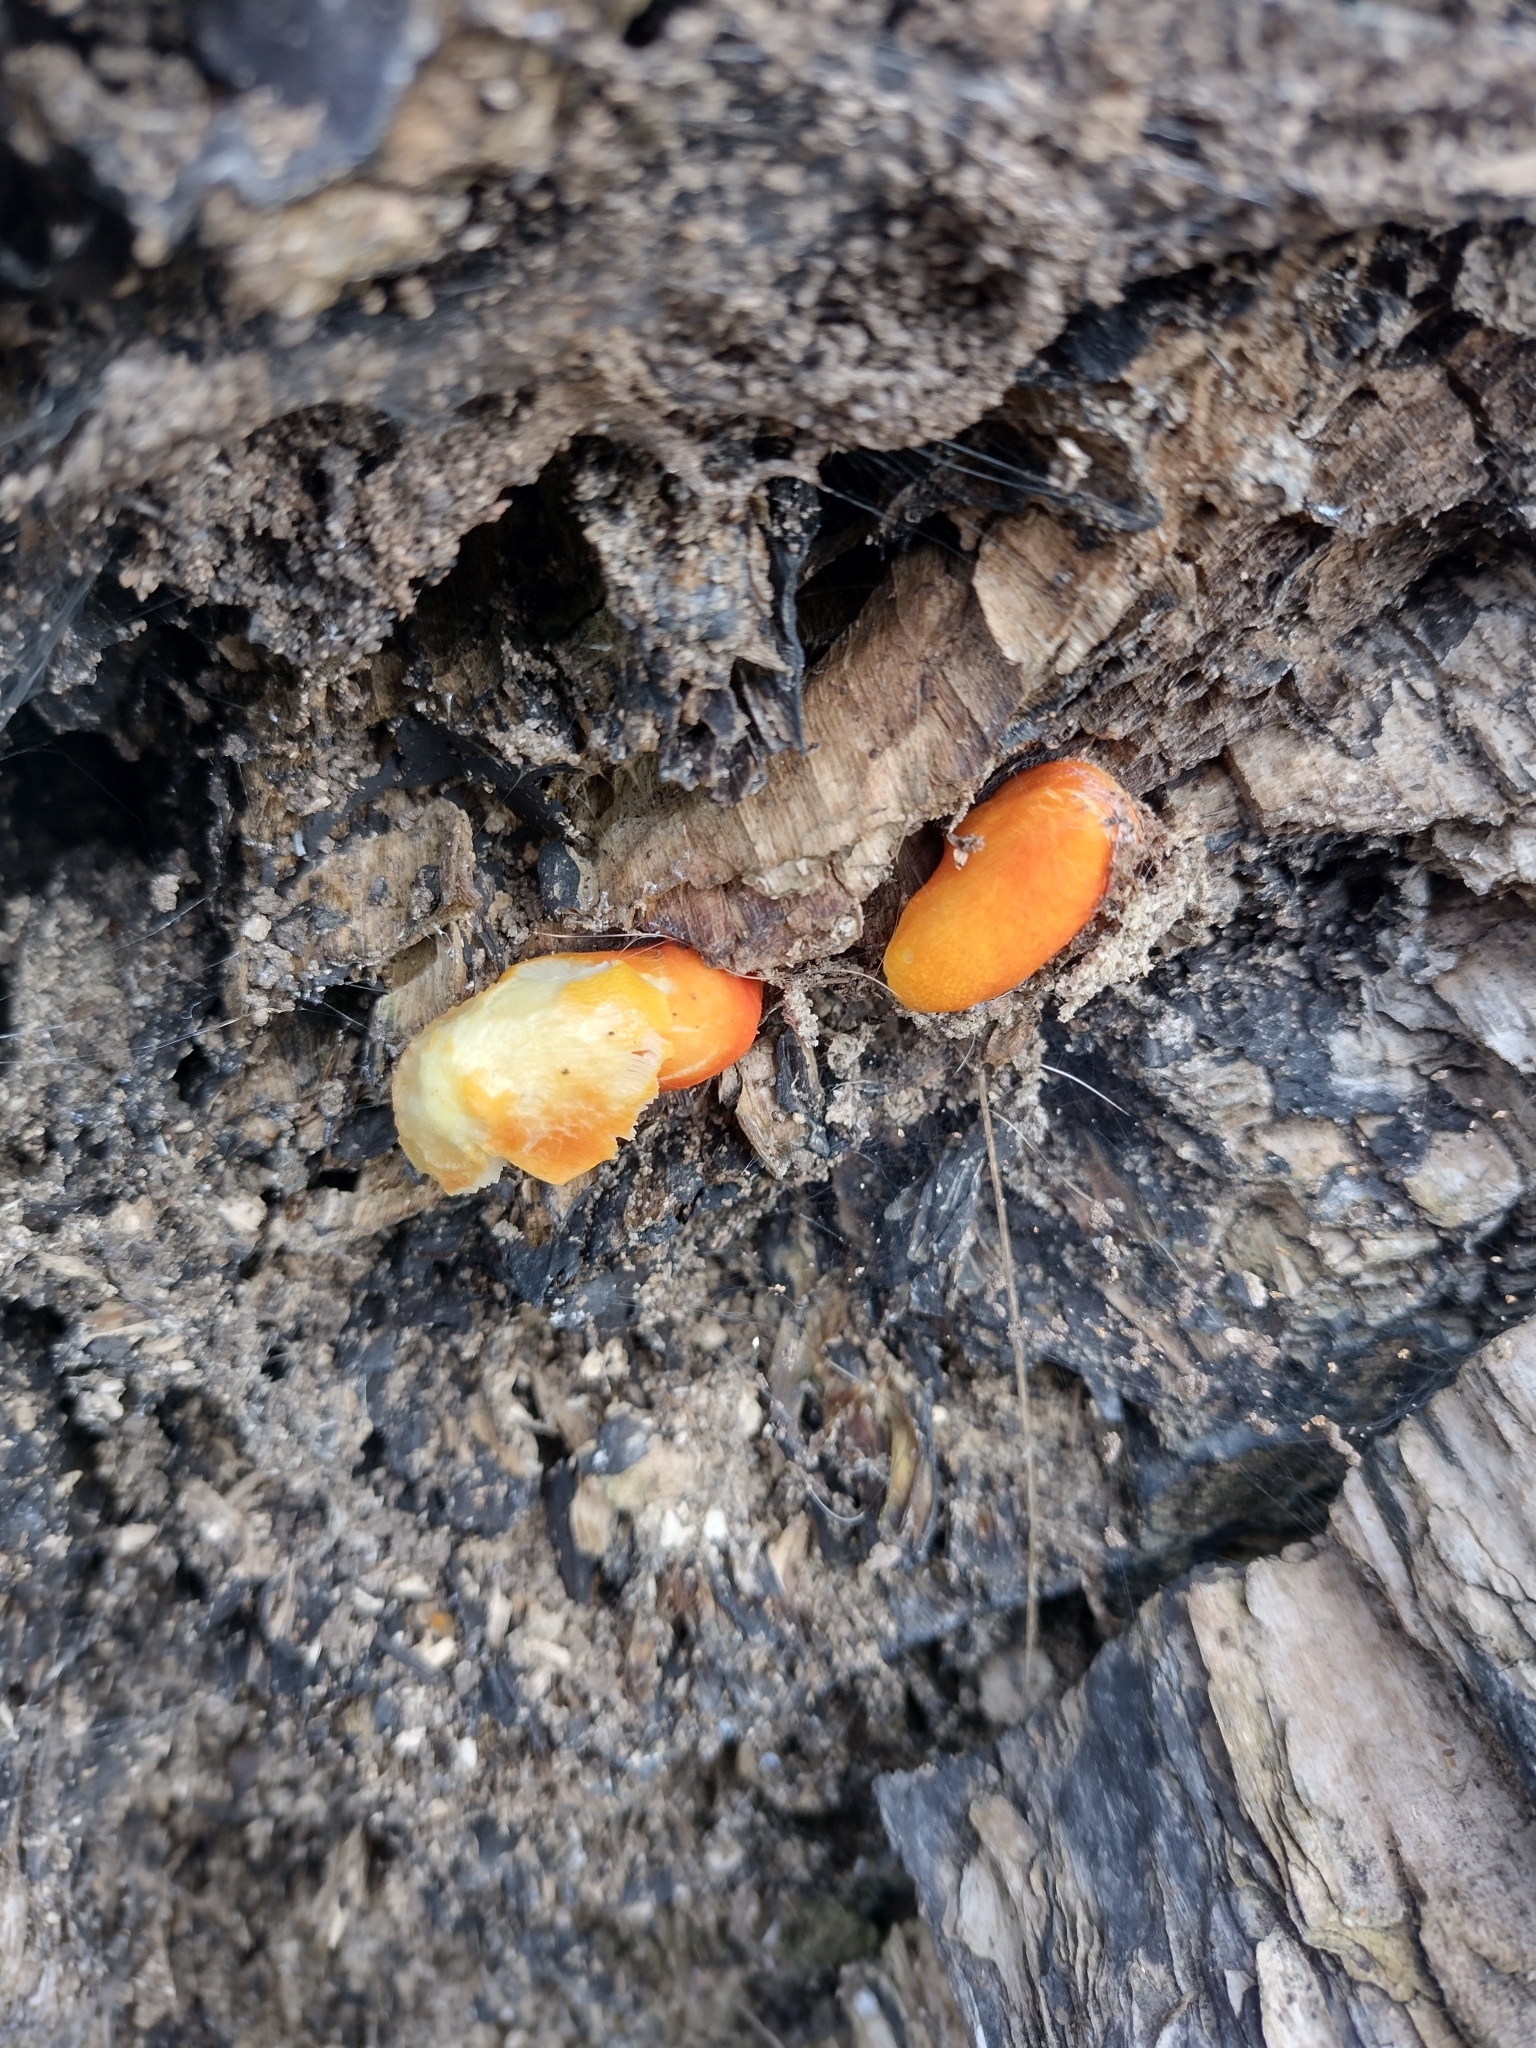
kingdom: Fungi
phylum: Basidiomycota
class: Agaricomycetes
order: Agaricales
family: Pluteaceae
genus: Pluteus
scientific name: Pluteus aurantiorugosus
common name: Flame shield
